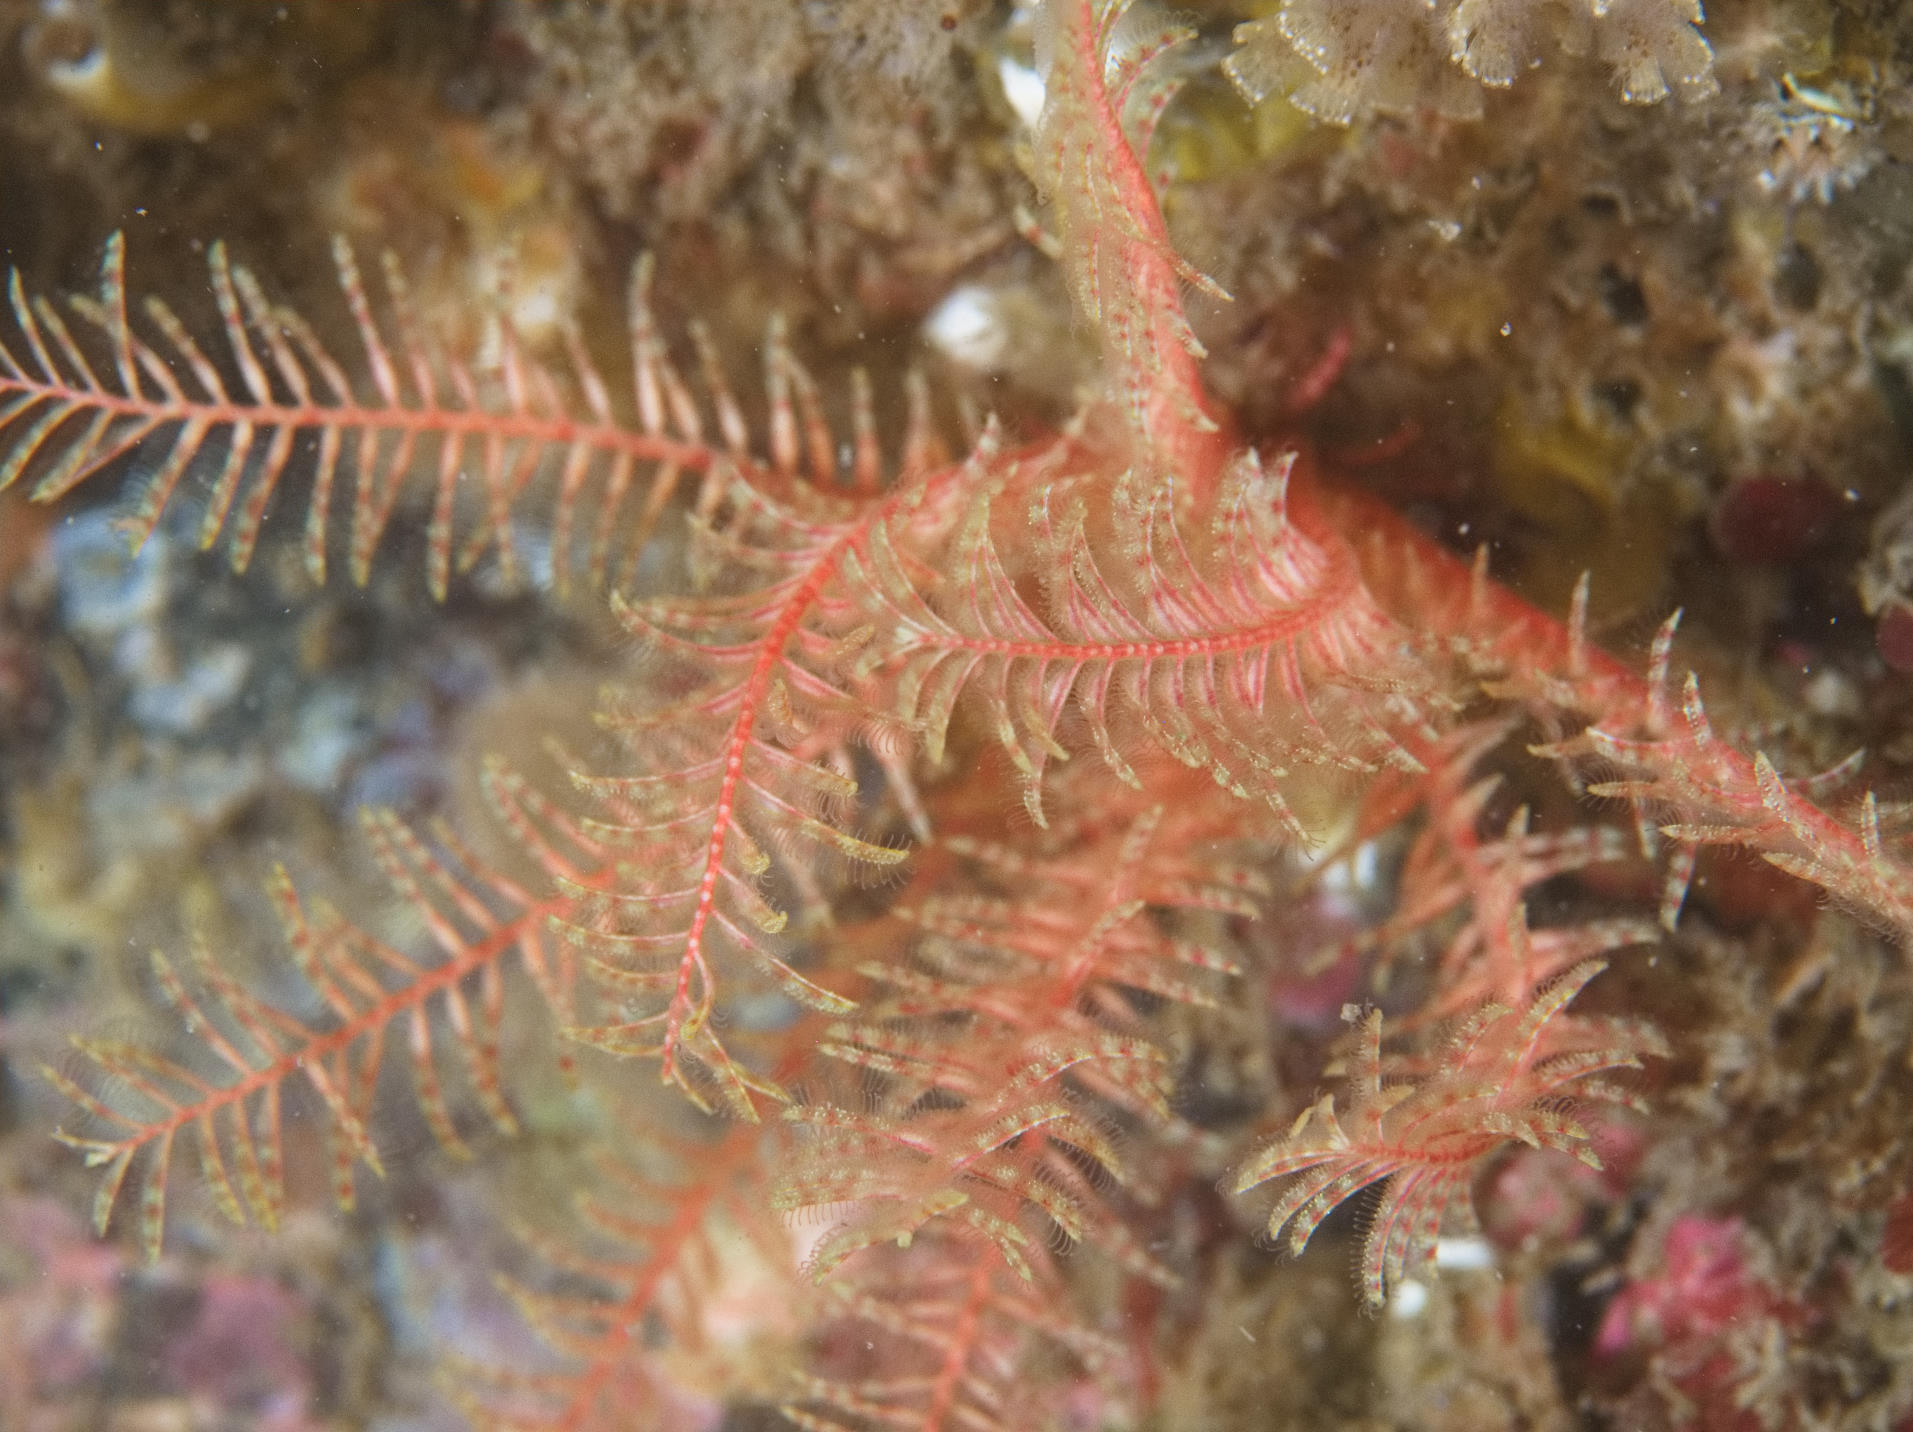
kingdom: Animalia
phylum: Echinodermata
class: Crinoidea
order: Comatulida
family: Antedonidae
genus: Antedon
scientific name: Antedon bifida
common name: Rosy feather-star
